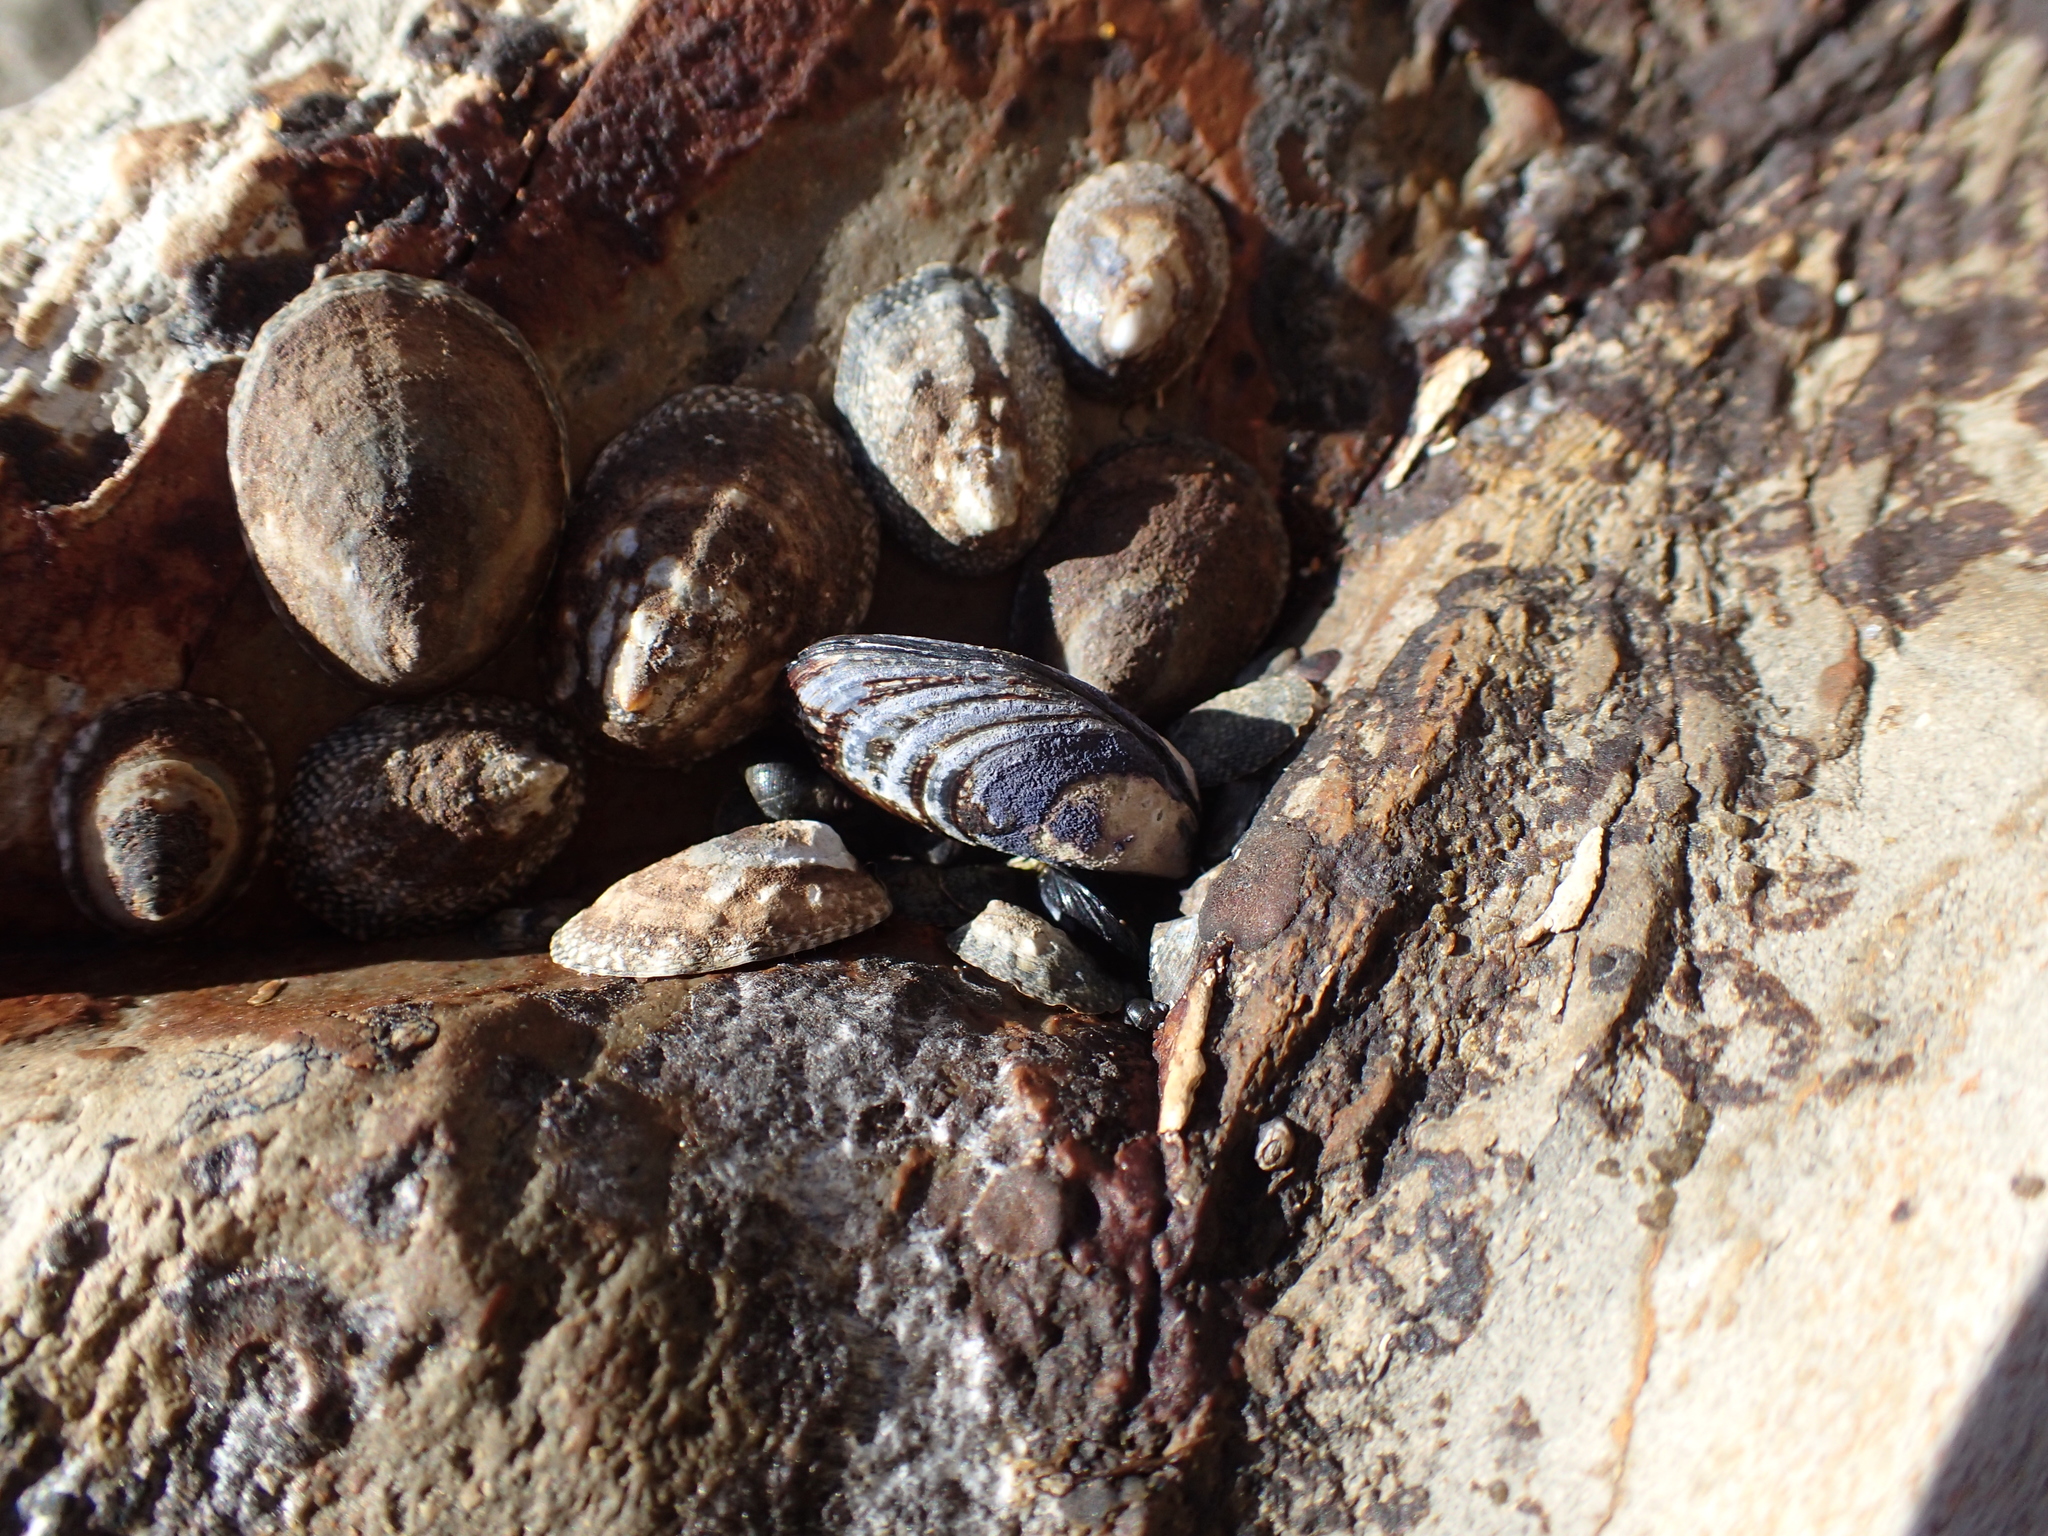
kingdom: Animalia
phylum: Mollusca
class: Bivalvia
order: Mytilida
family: Mytilidae
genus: Mytilus
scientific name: Mytilus californianus
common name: California mussel
